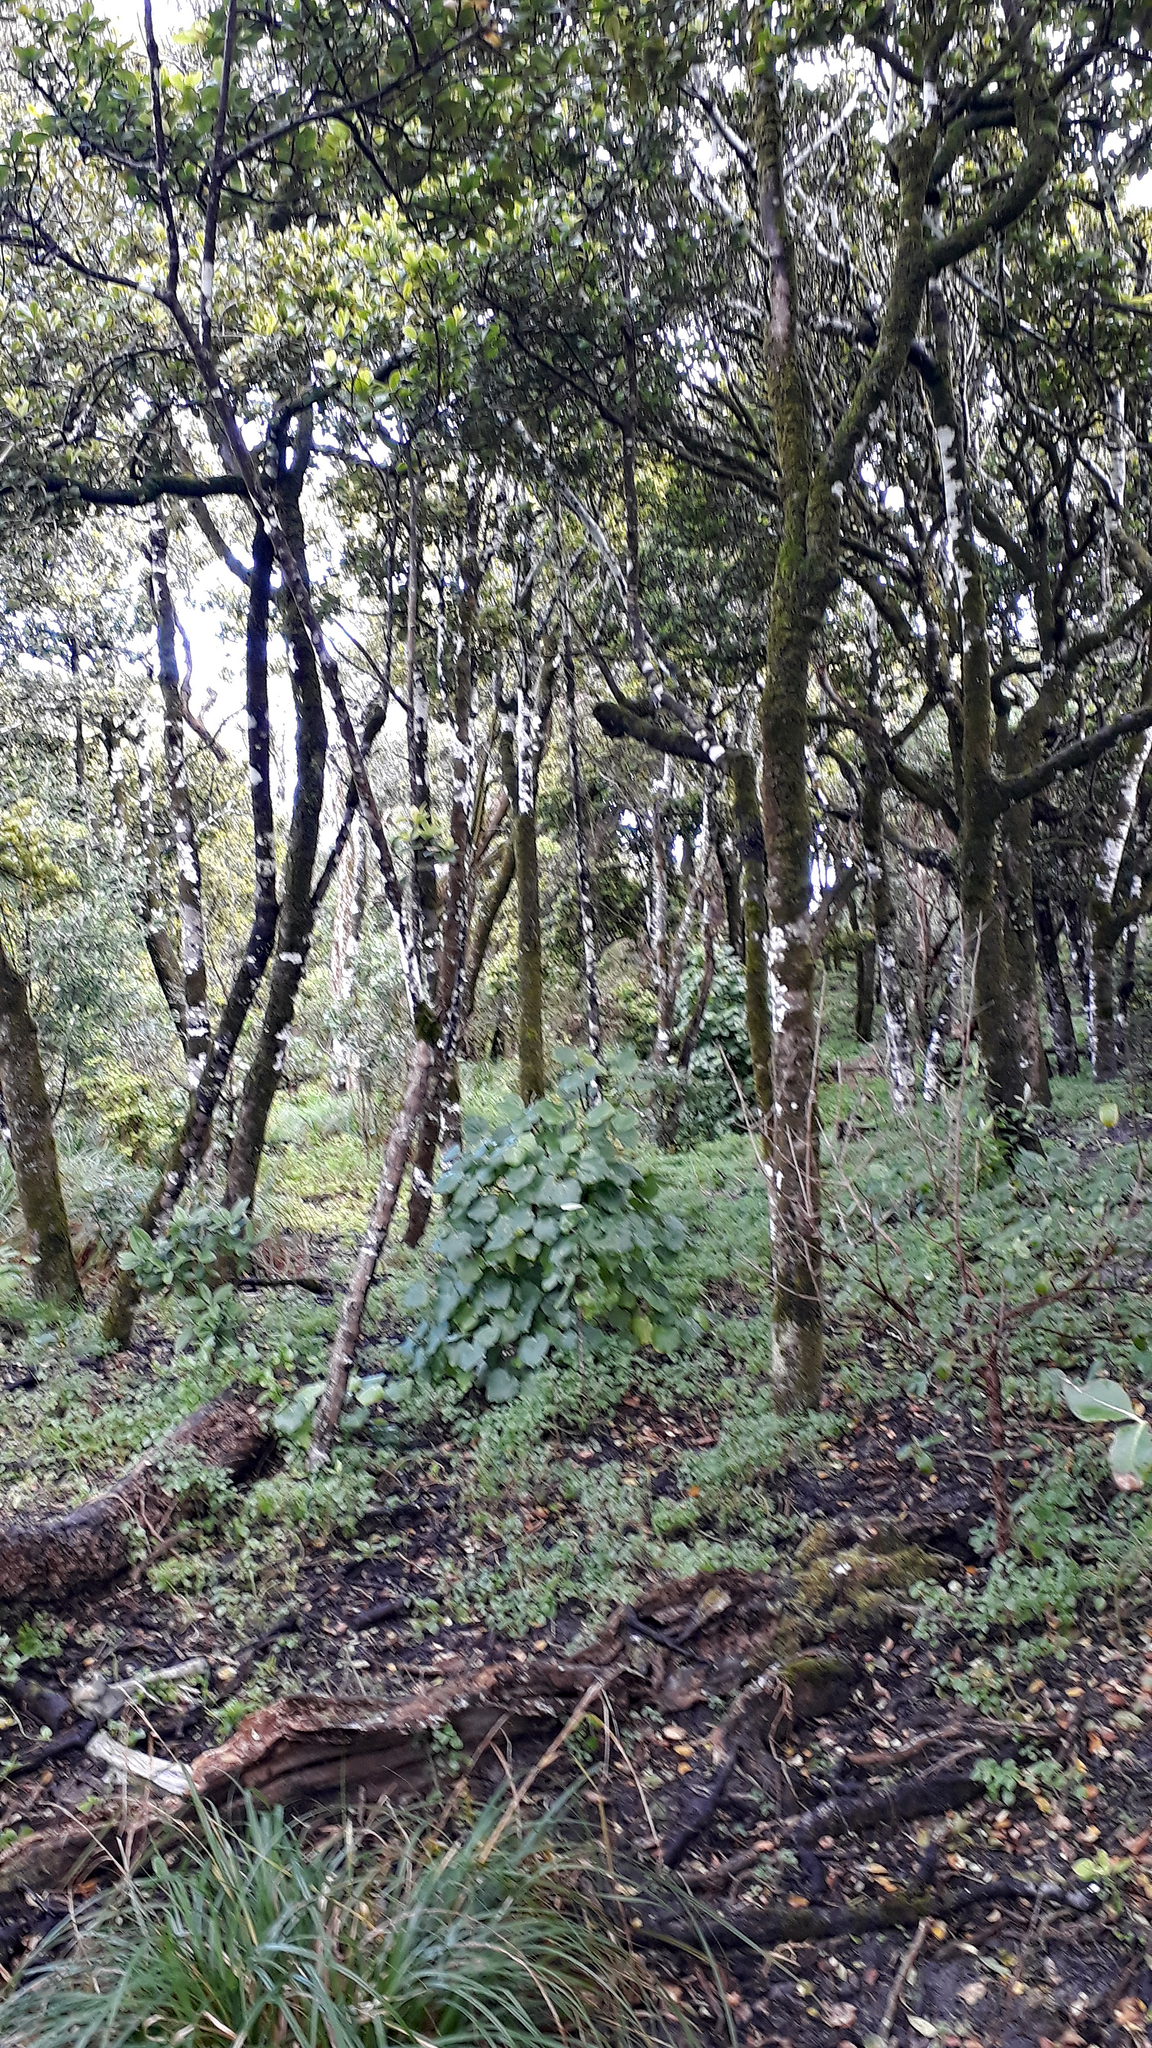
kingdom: Plantae
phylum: Tracheophyta
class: Magnoliopsida
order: Ericales
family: Primulaceae
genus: Myrsine
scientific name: Myrsine chathamica
